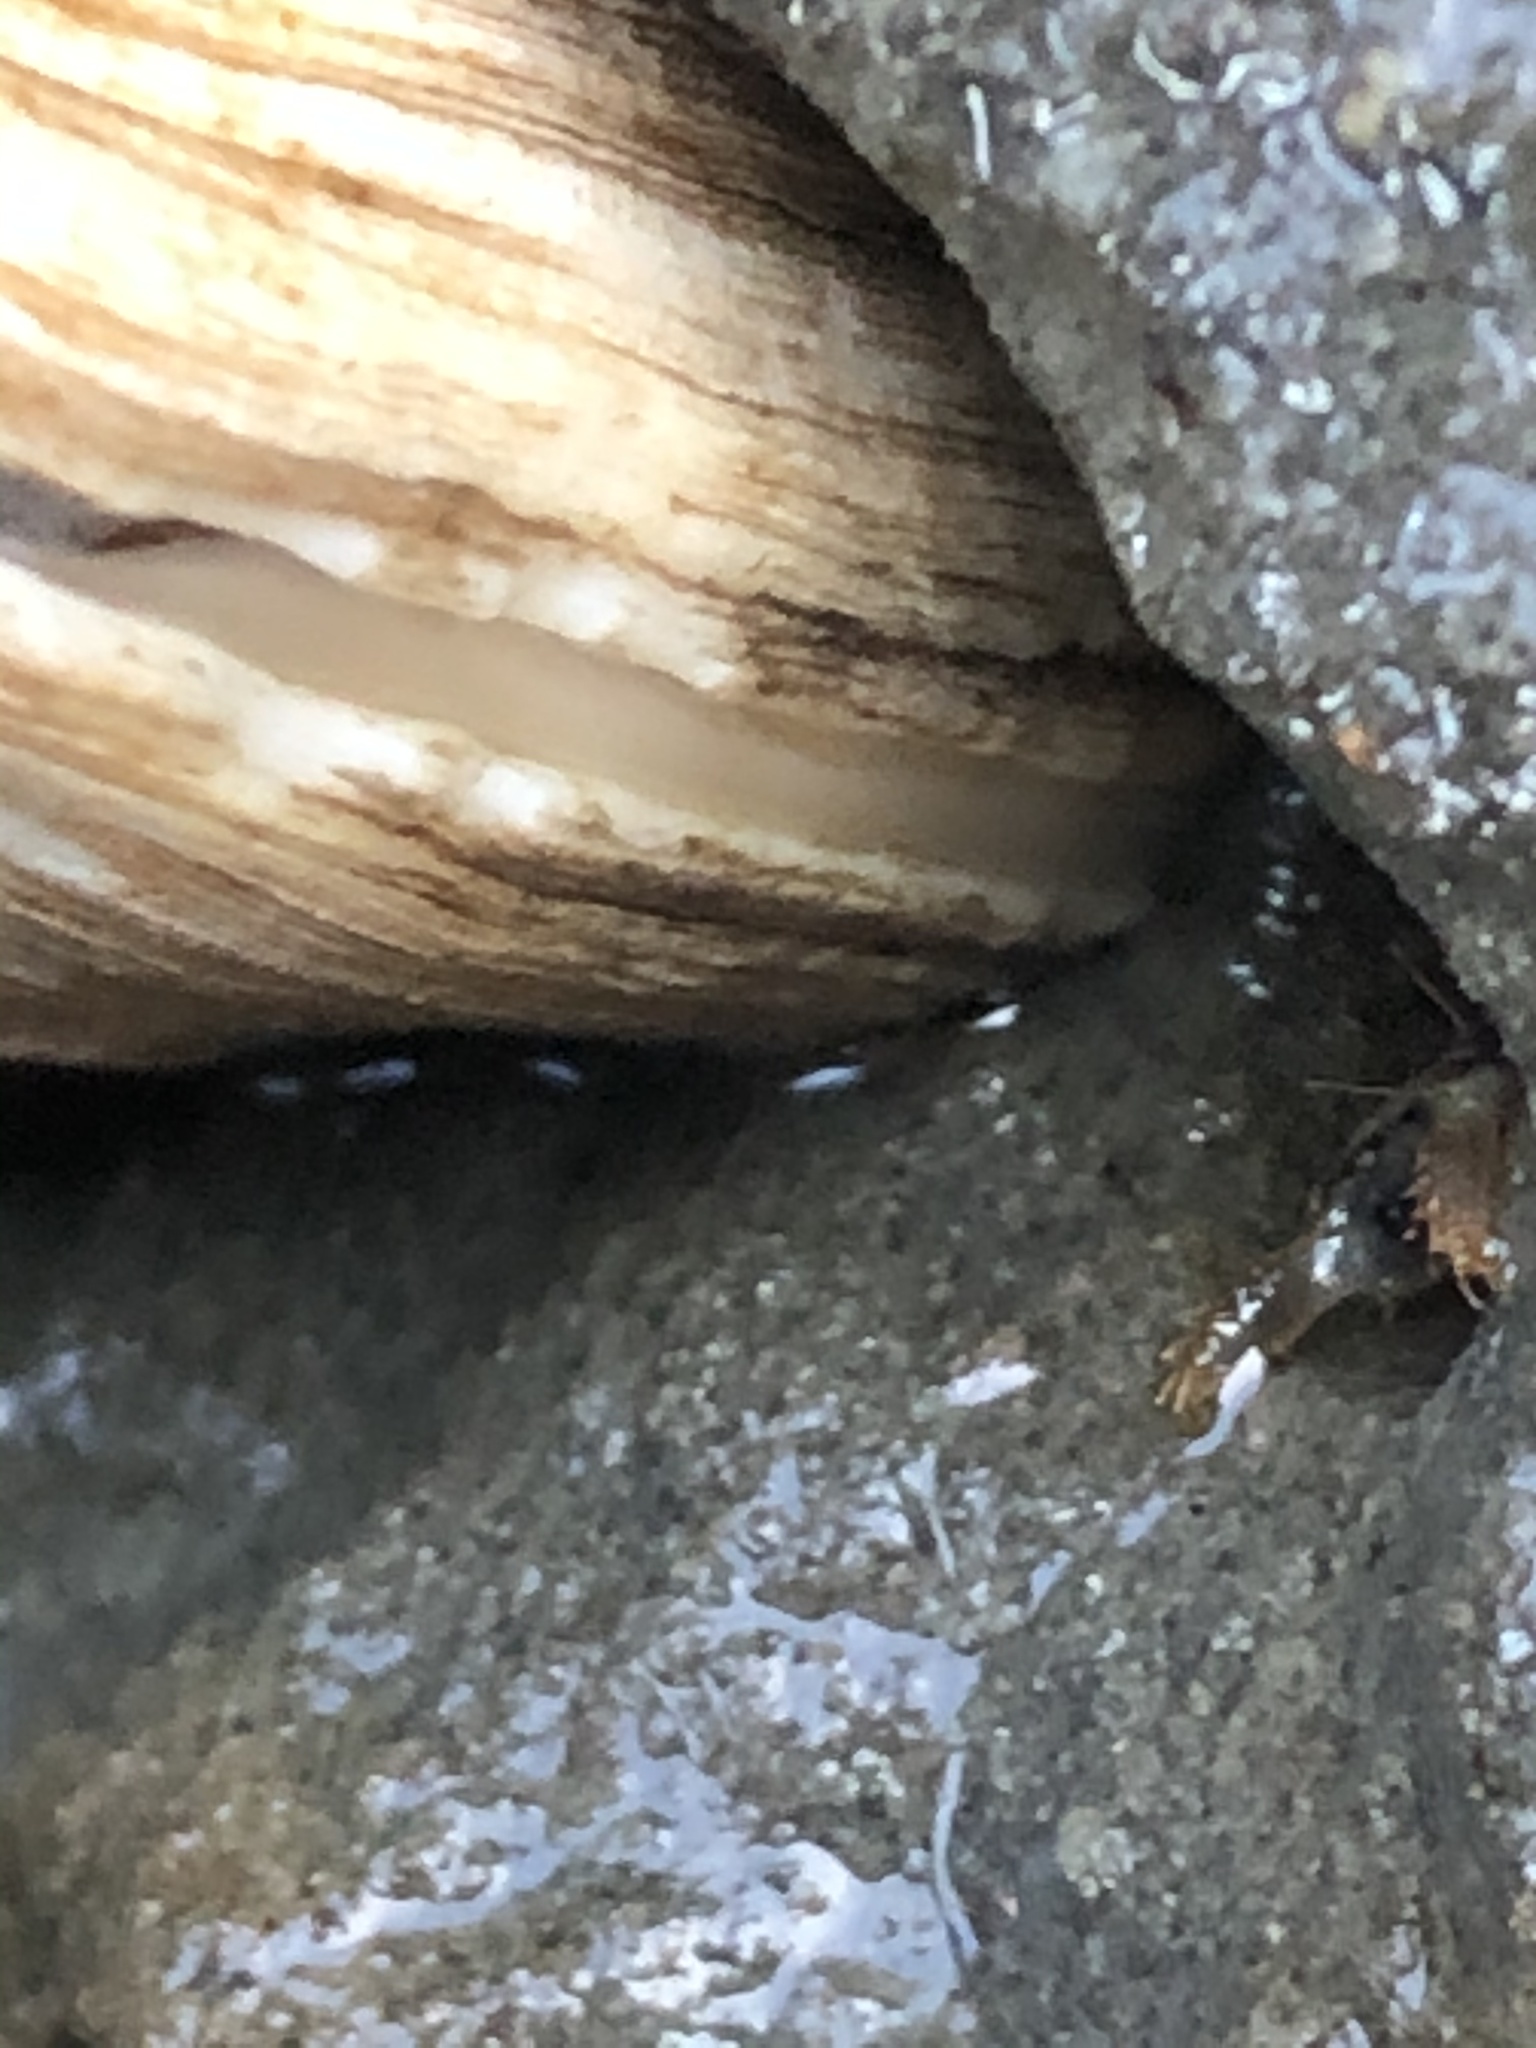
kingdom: Animalia
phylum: Mollusca
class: Bivalvia
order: Venerida
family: Veneridae
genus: Petricola
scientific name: Petricola carditoides
